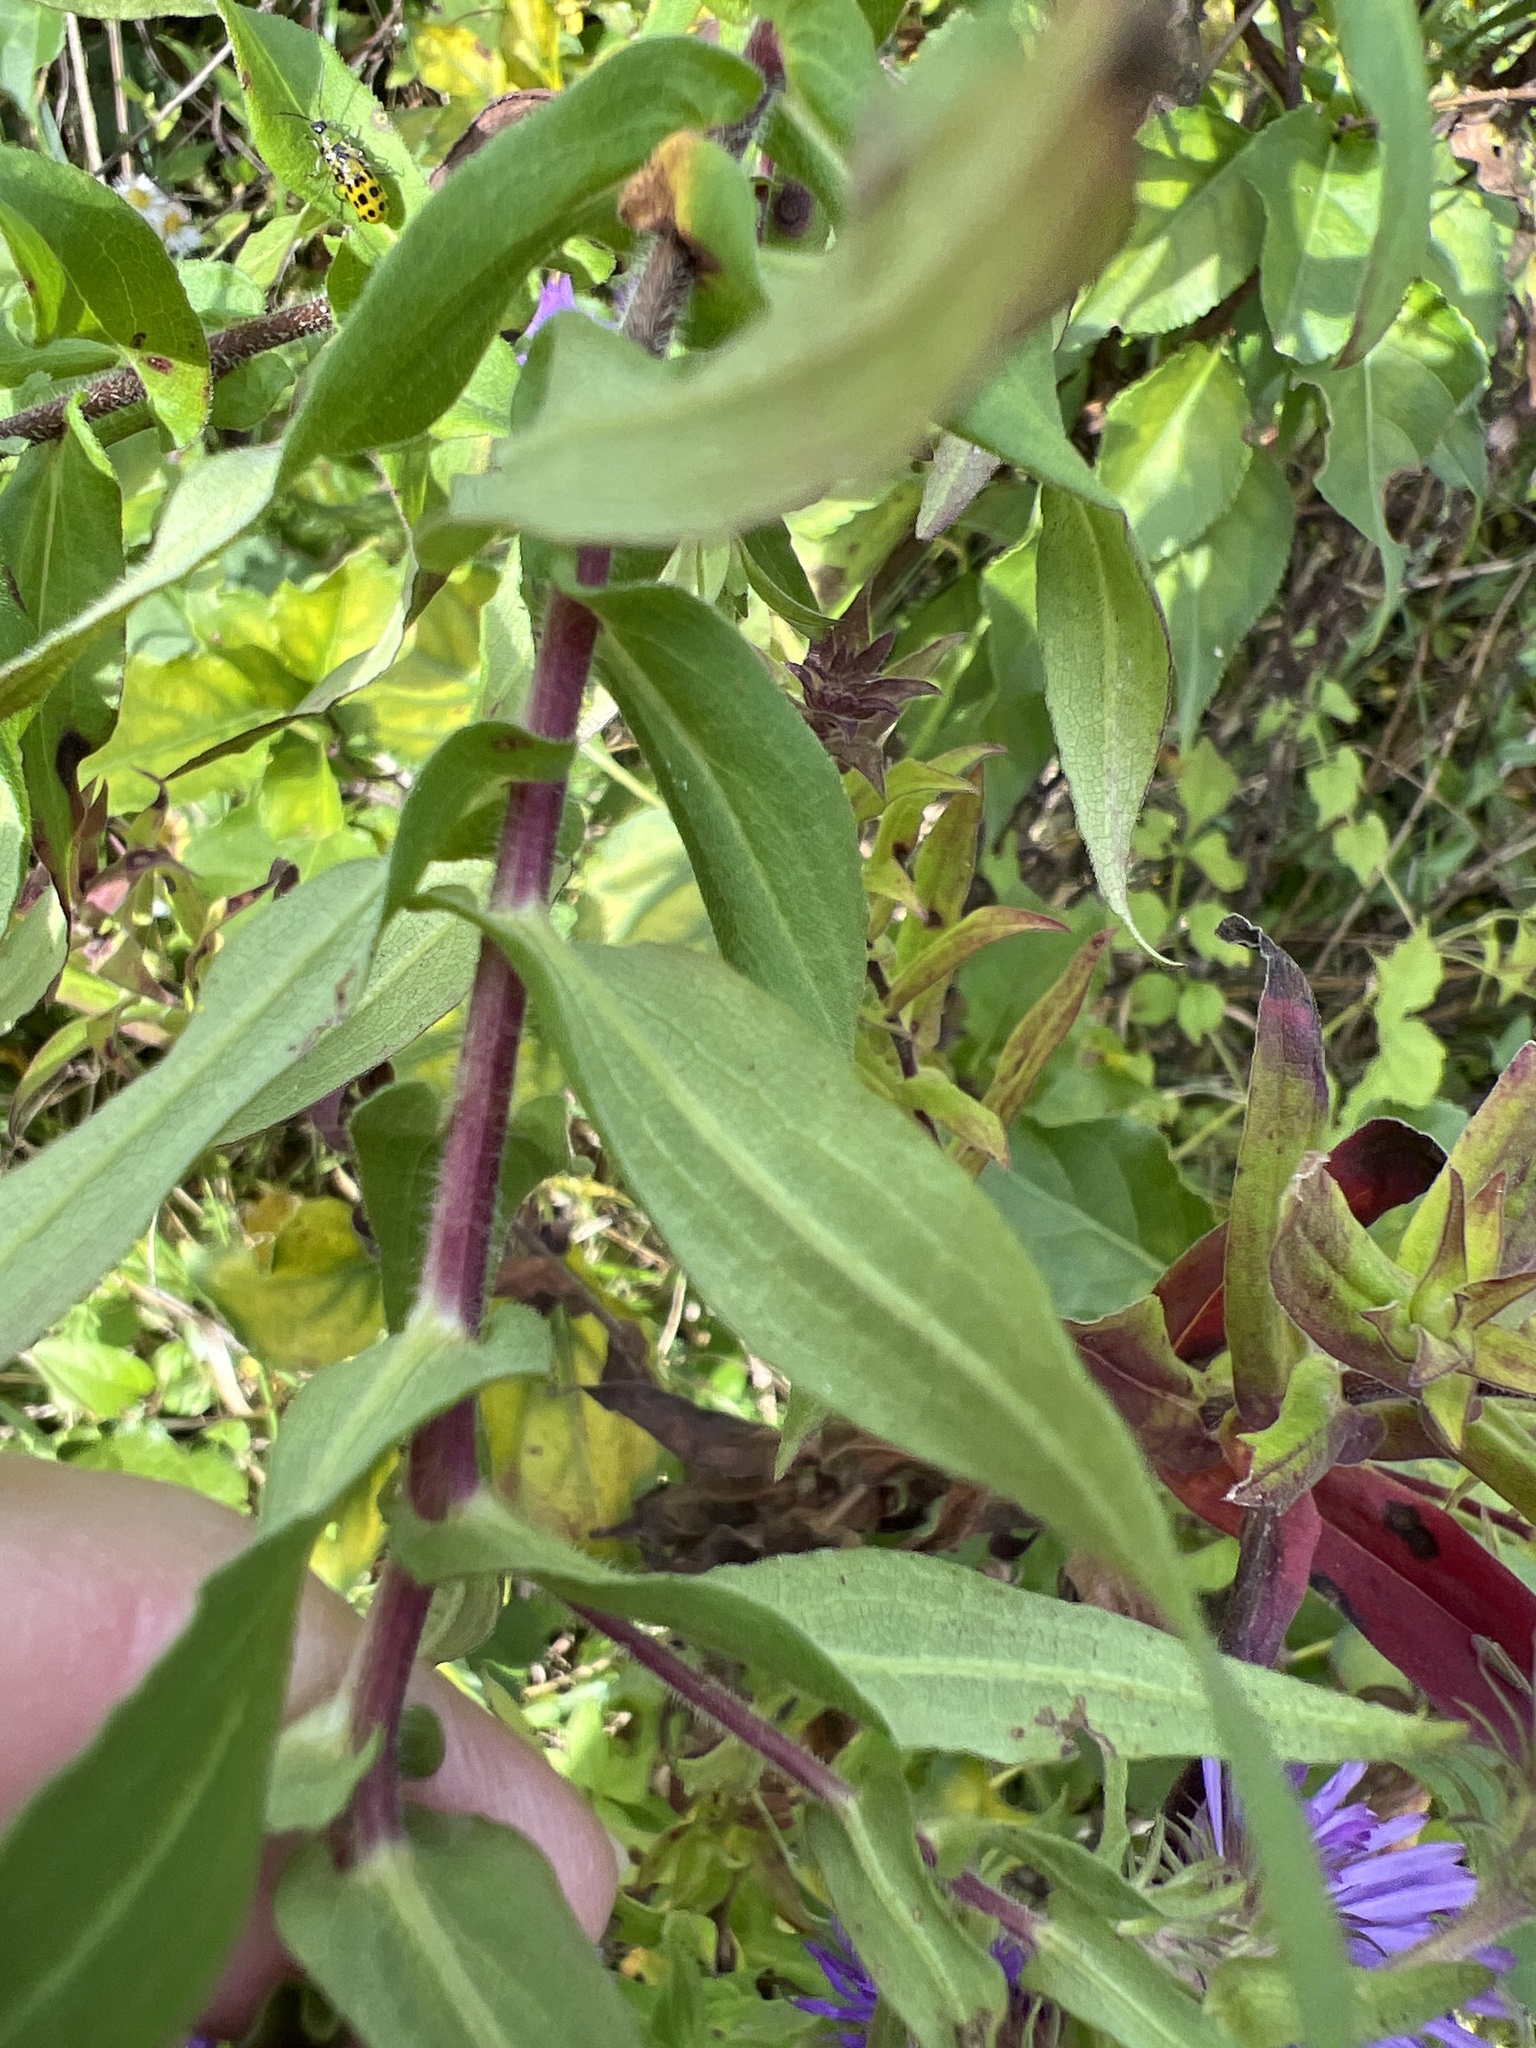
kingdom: Plantae
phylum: Tracheophyta
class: Magnoliopsida
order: Asterales
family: Asteraceae
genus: Symphyotrichum
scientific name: Symphyotrichum novae-angliae
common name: Michaelmas daisy
